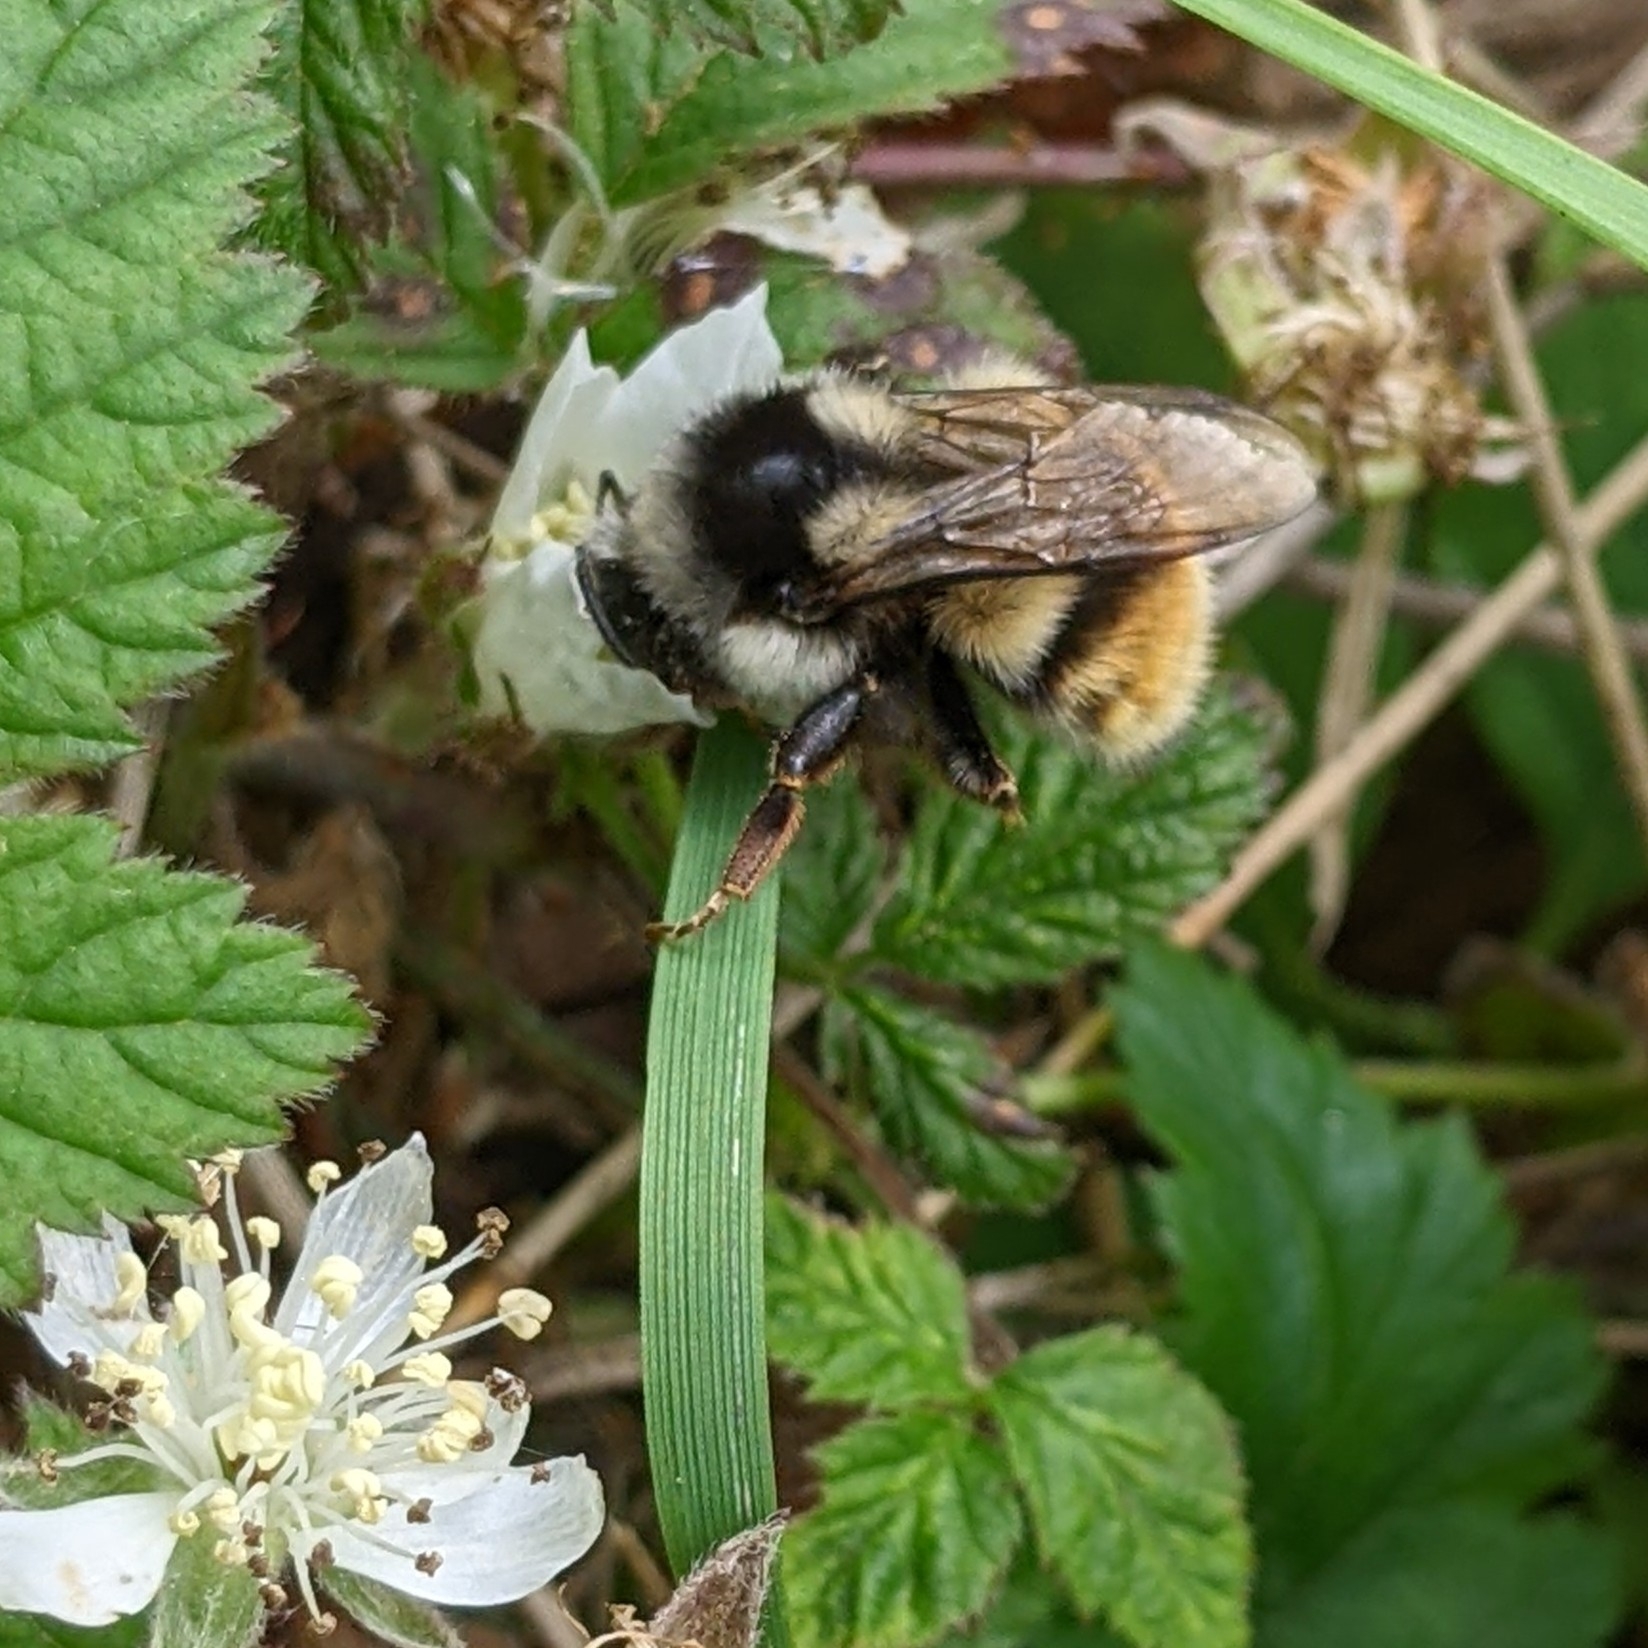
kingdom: Animalia
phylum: Arthropoda
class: Insecta
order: Hymenoptera
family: Apidae
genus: Bombus
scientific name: Bombus vancouverensis
